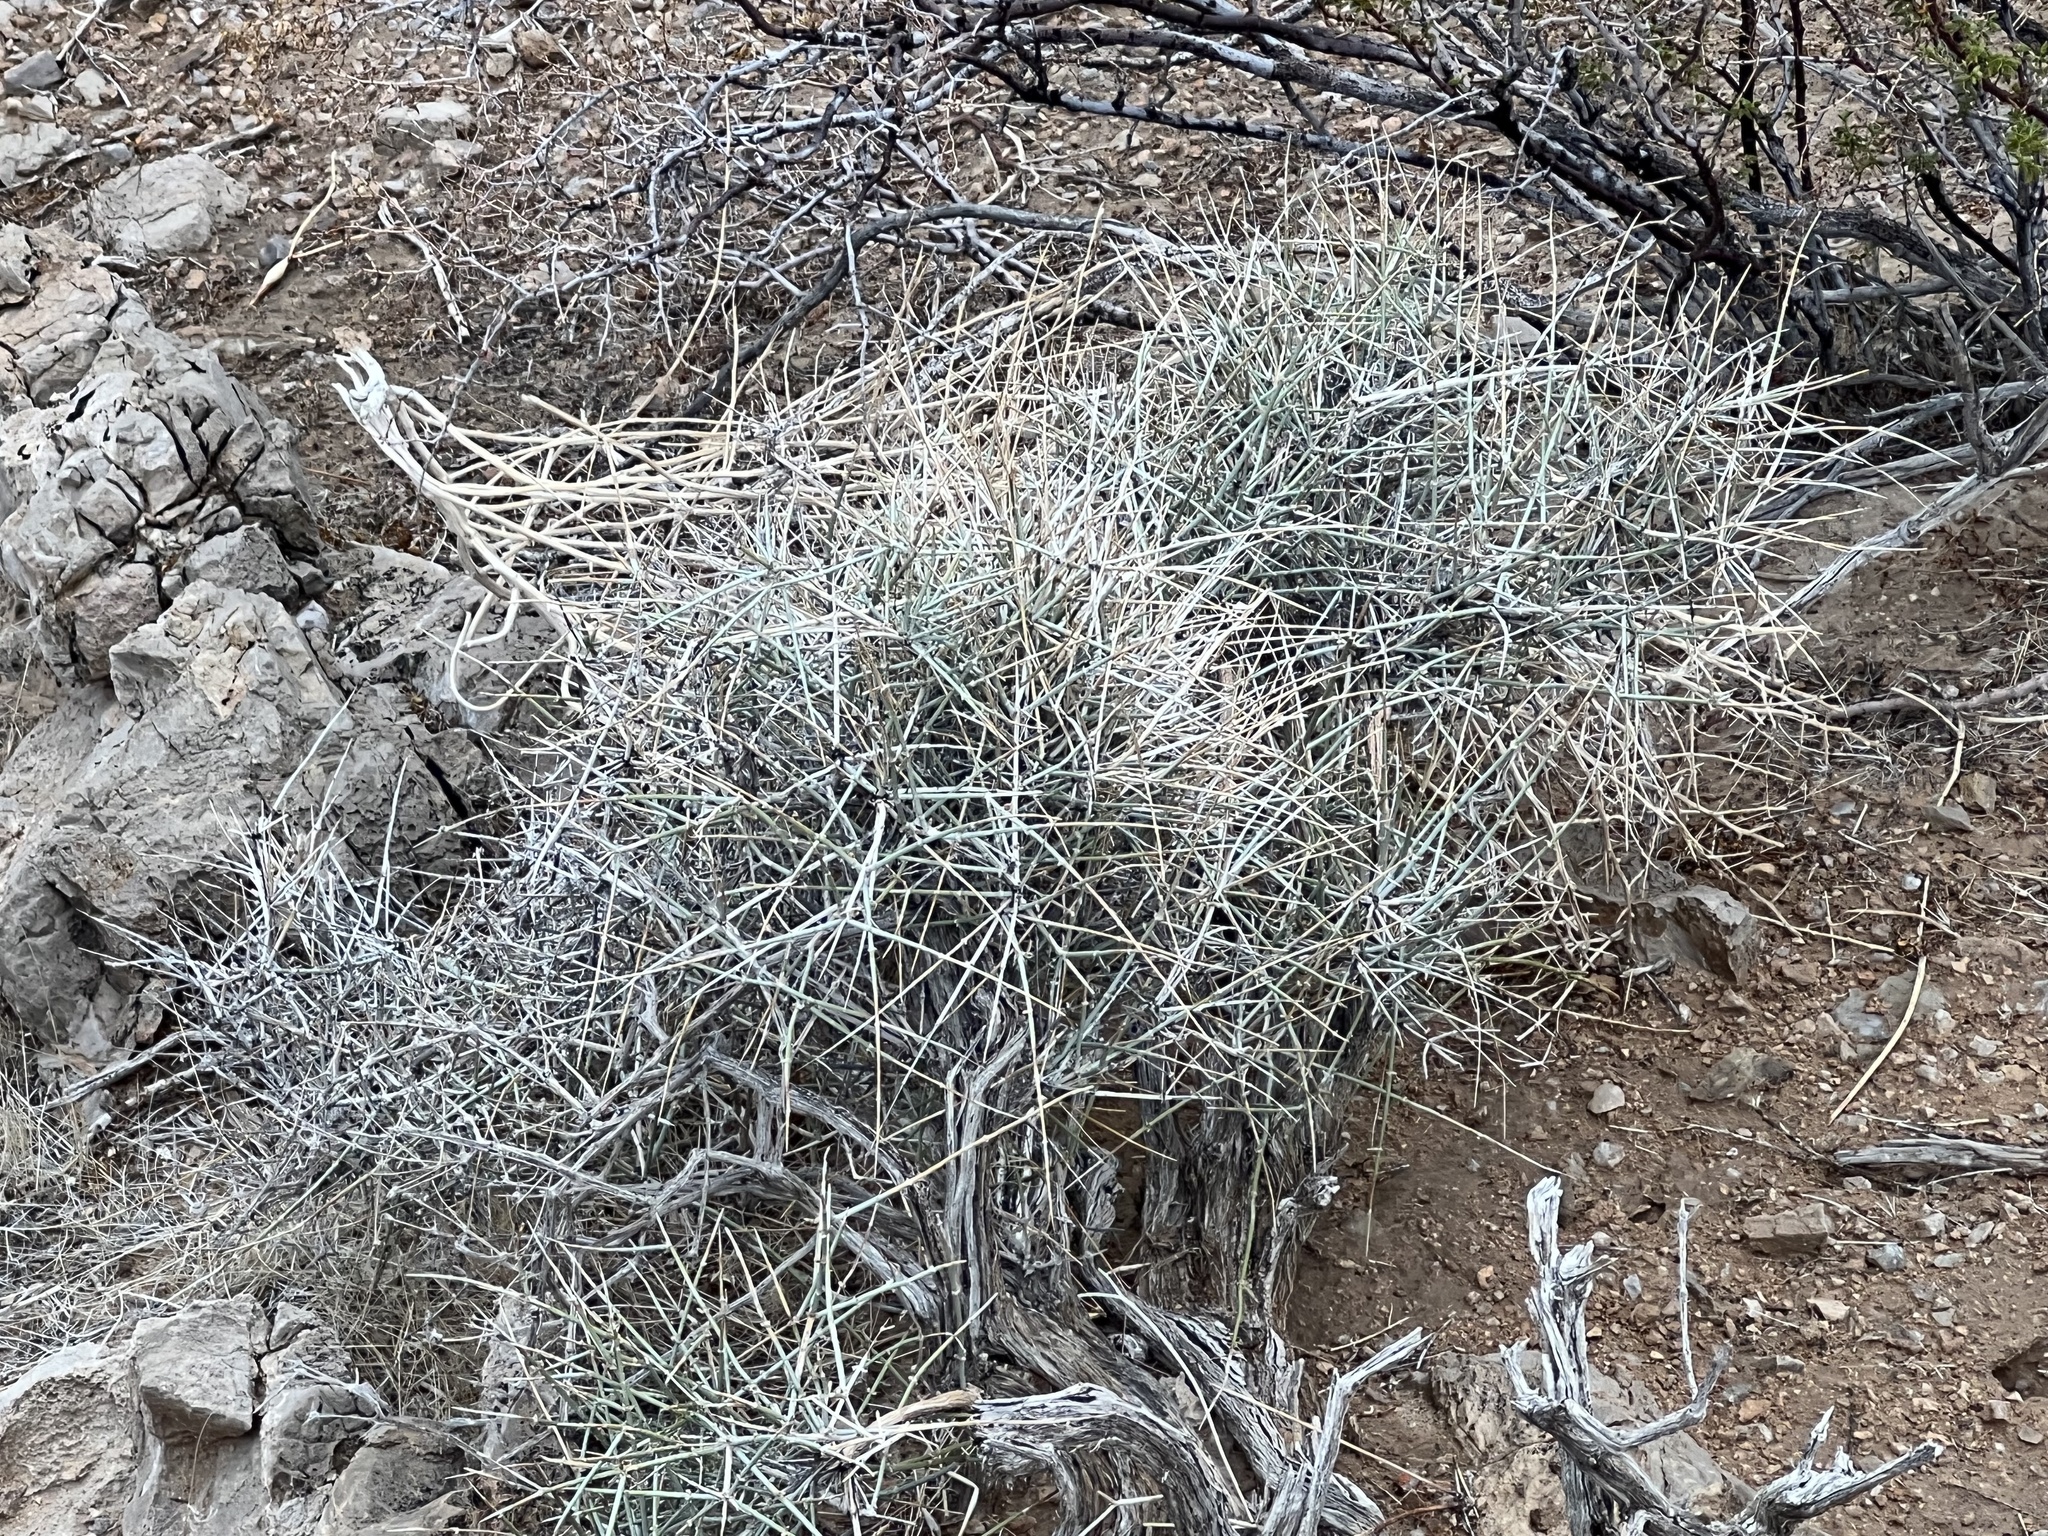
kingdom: Plantae
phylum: Tracheophyta
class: Gnetopsida
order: Ephedrales
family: Ephedraceae
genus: Ephedra
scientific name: Ephedra nevadensis
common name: Gray ephedra
